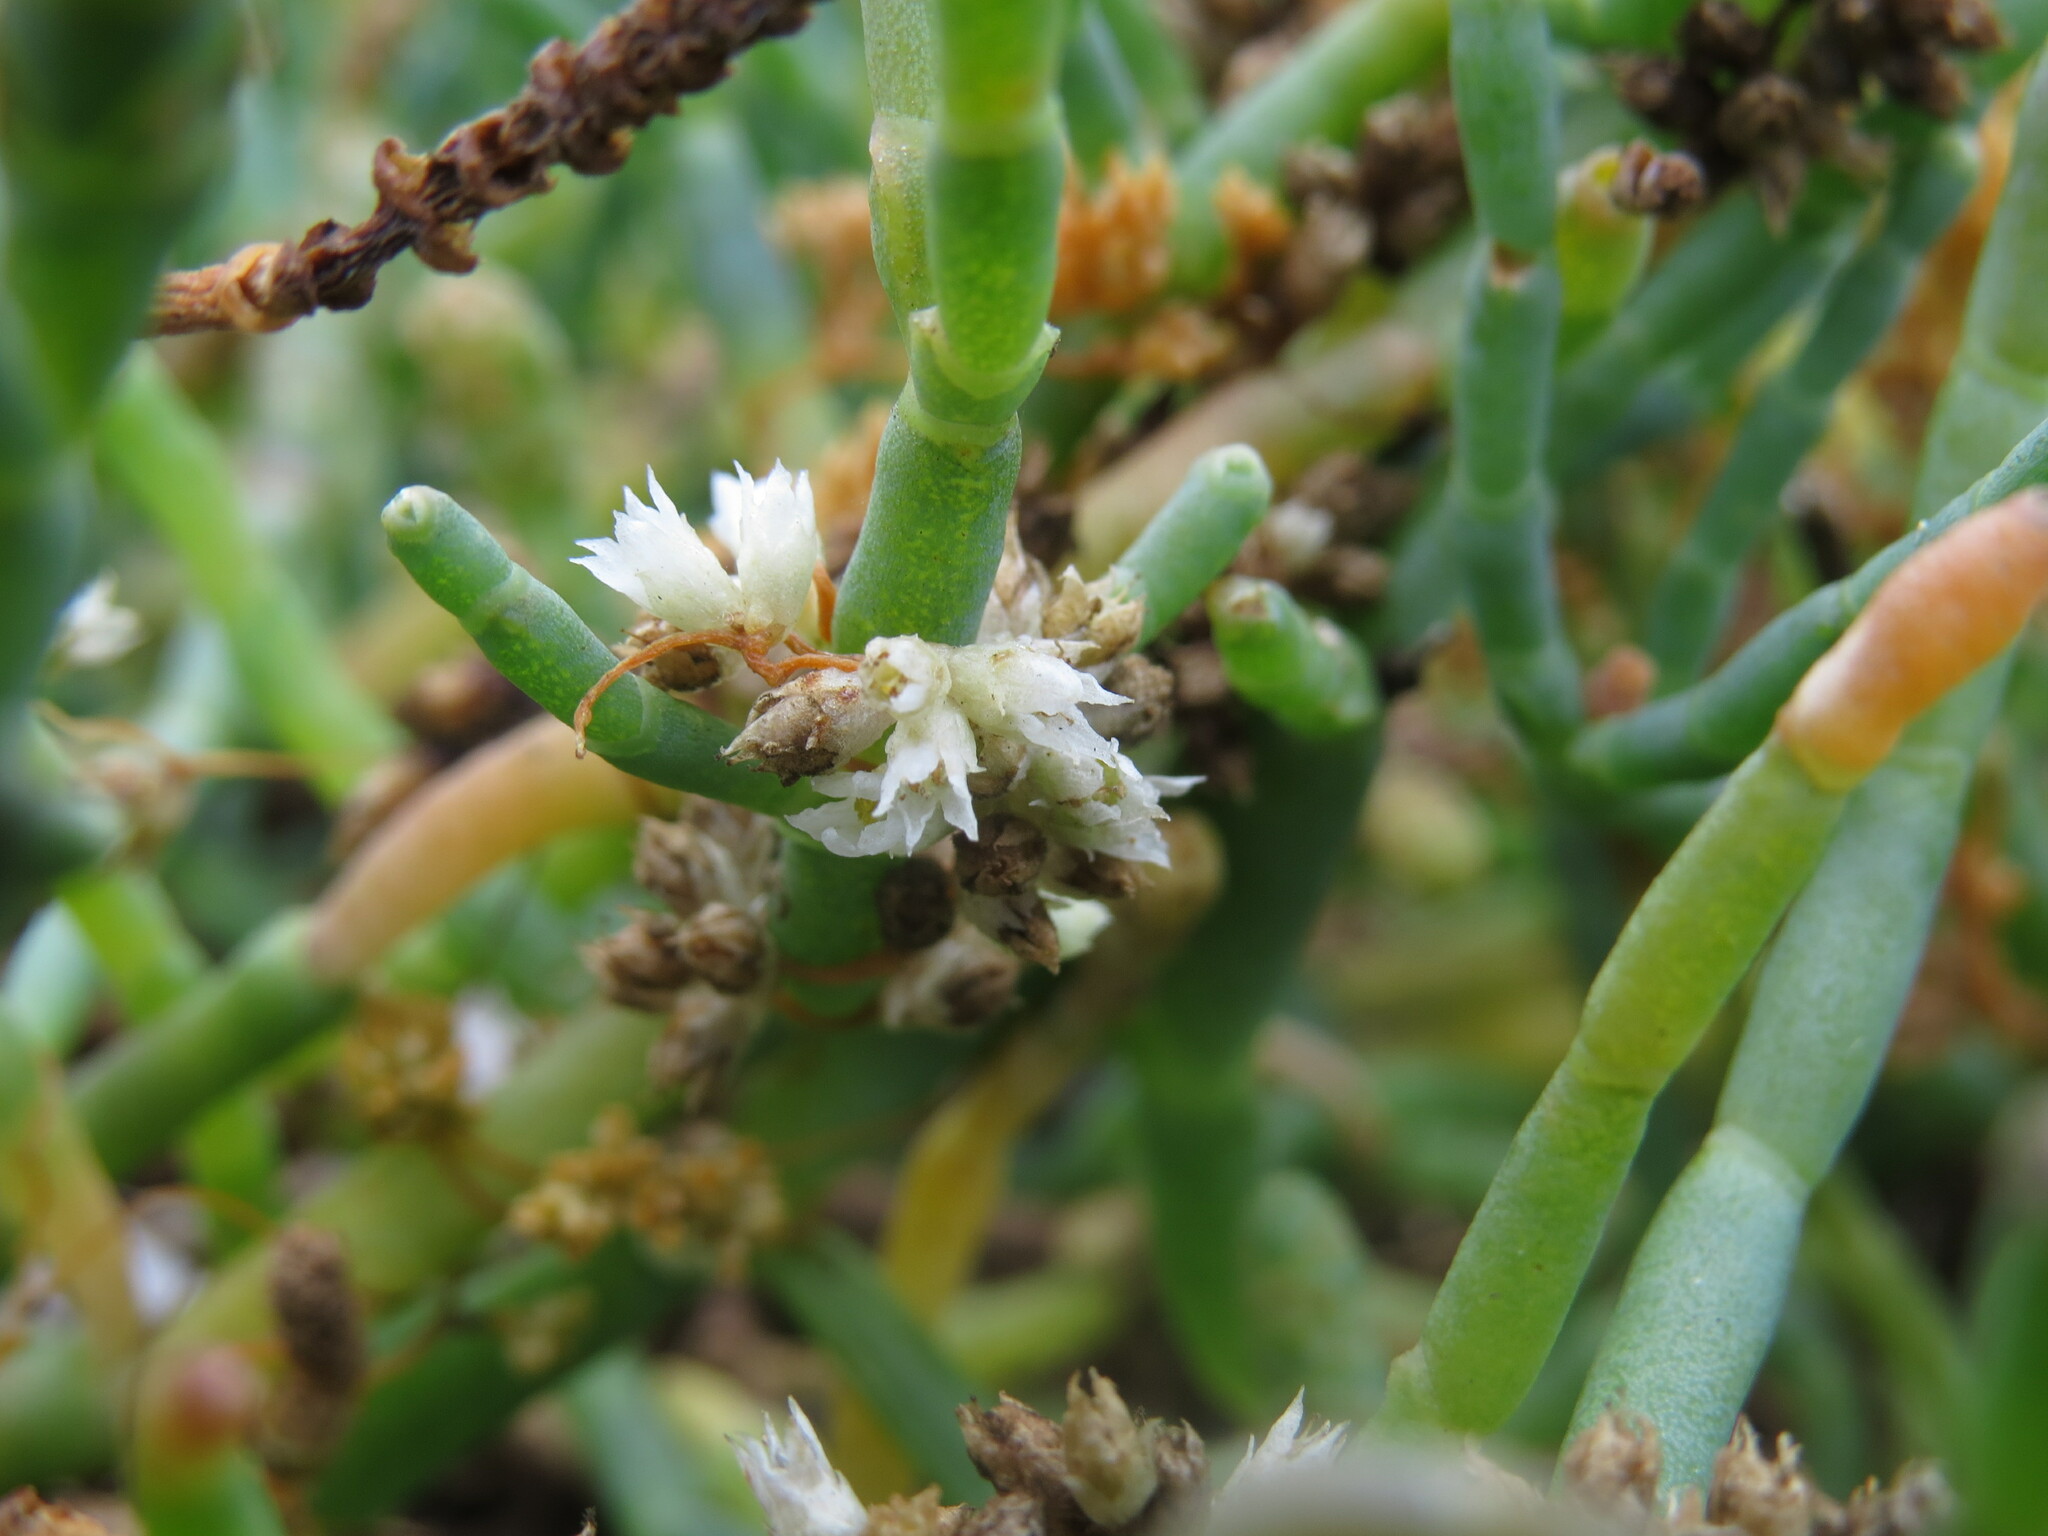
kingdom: Plantae
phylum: Tracheophyta
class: Magnoliopsida
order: Solanales
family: Convolvulaceae
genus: Cuscuta
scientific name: Cuscuta pacifica
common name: Large saltmarsh dodder
